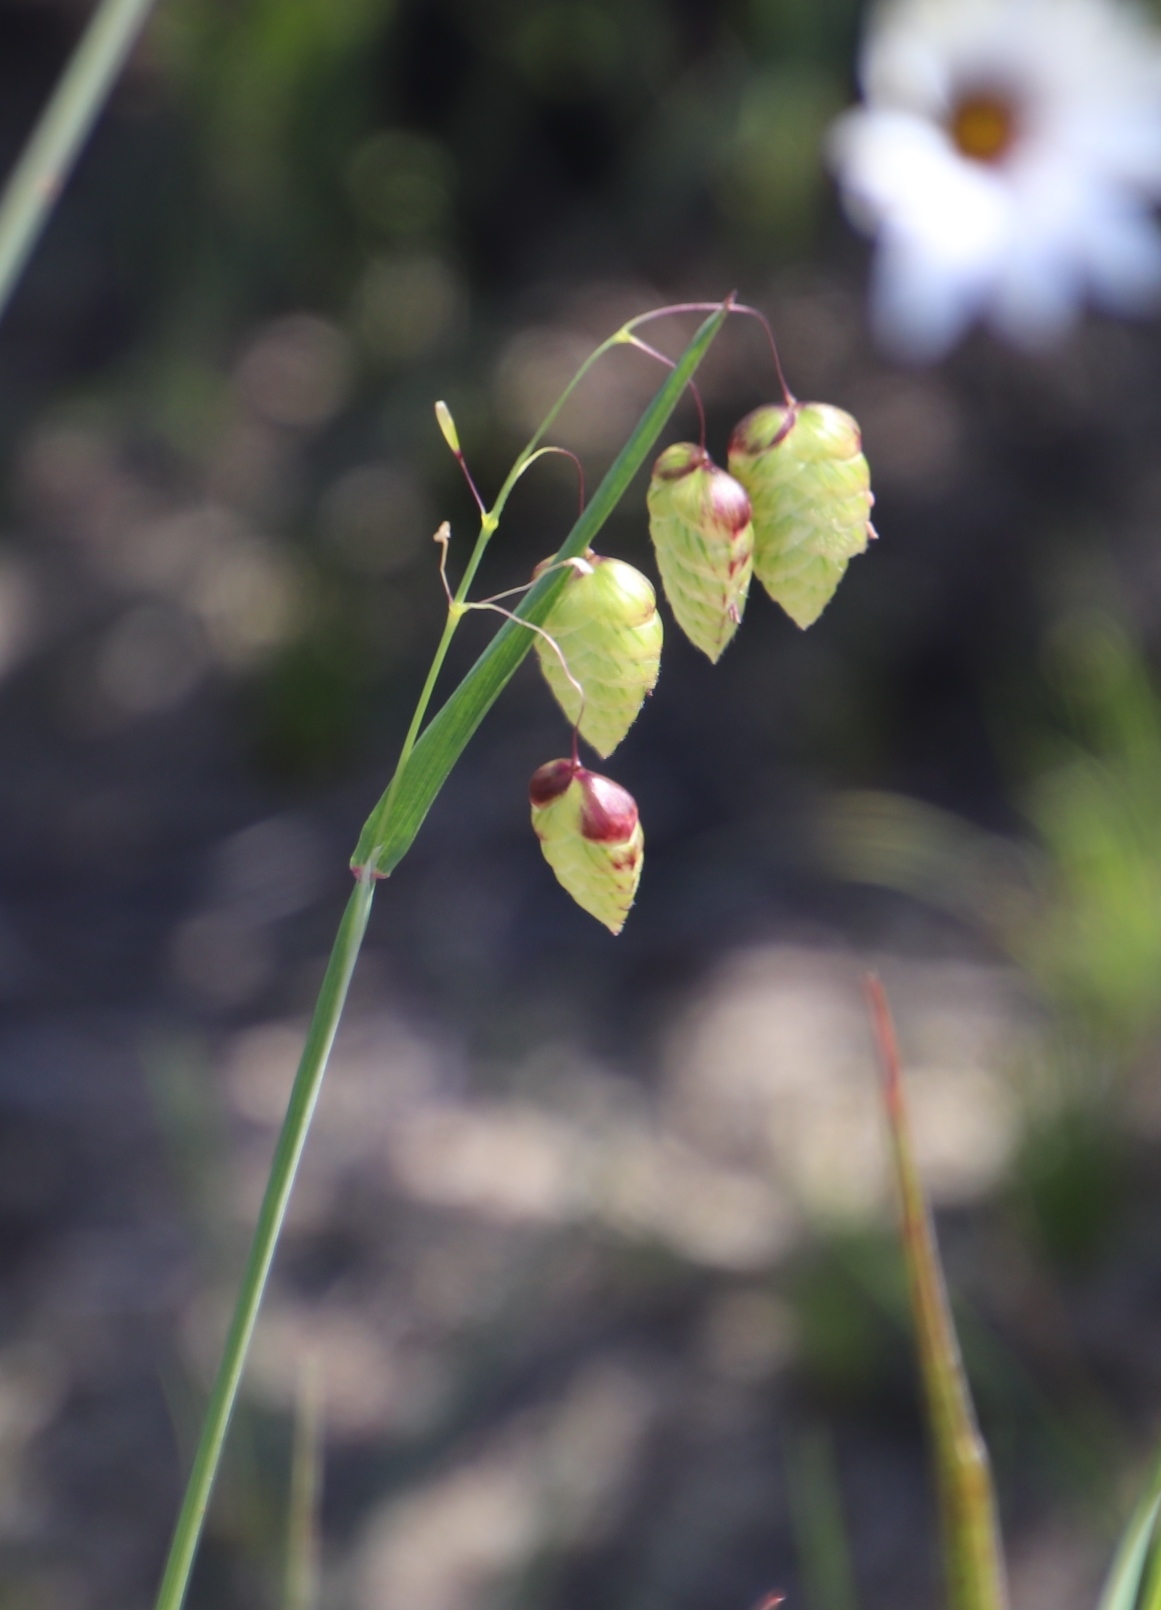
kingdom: Plantae
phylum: Tracheophyta
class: Liliopsida
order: Poales
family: Poaceae
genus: Briza
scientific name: Briza maxima
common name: Big quakinggrass
